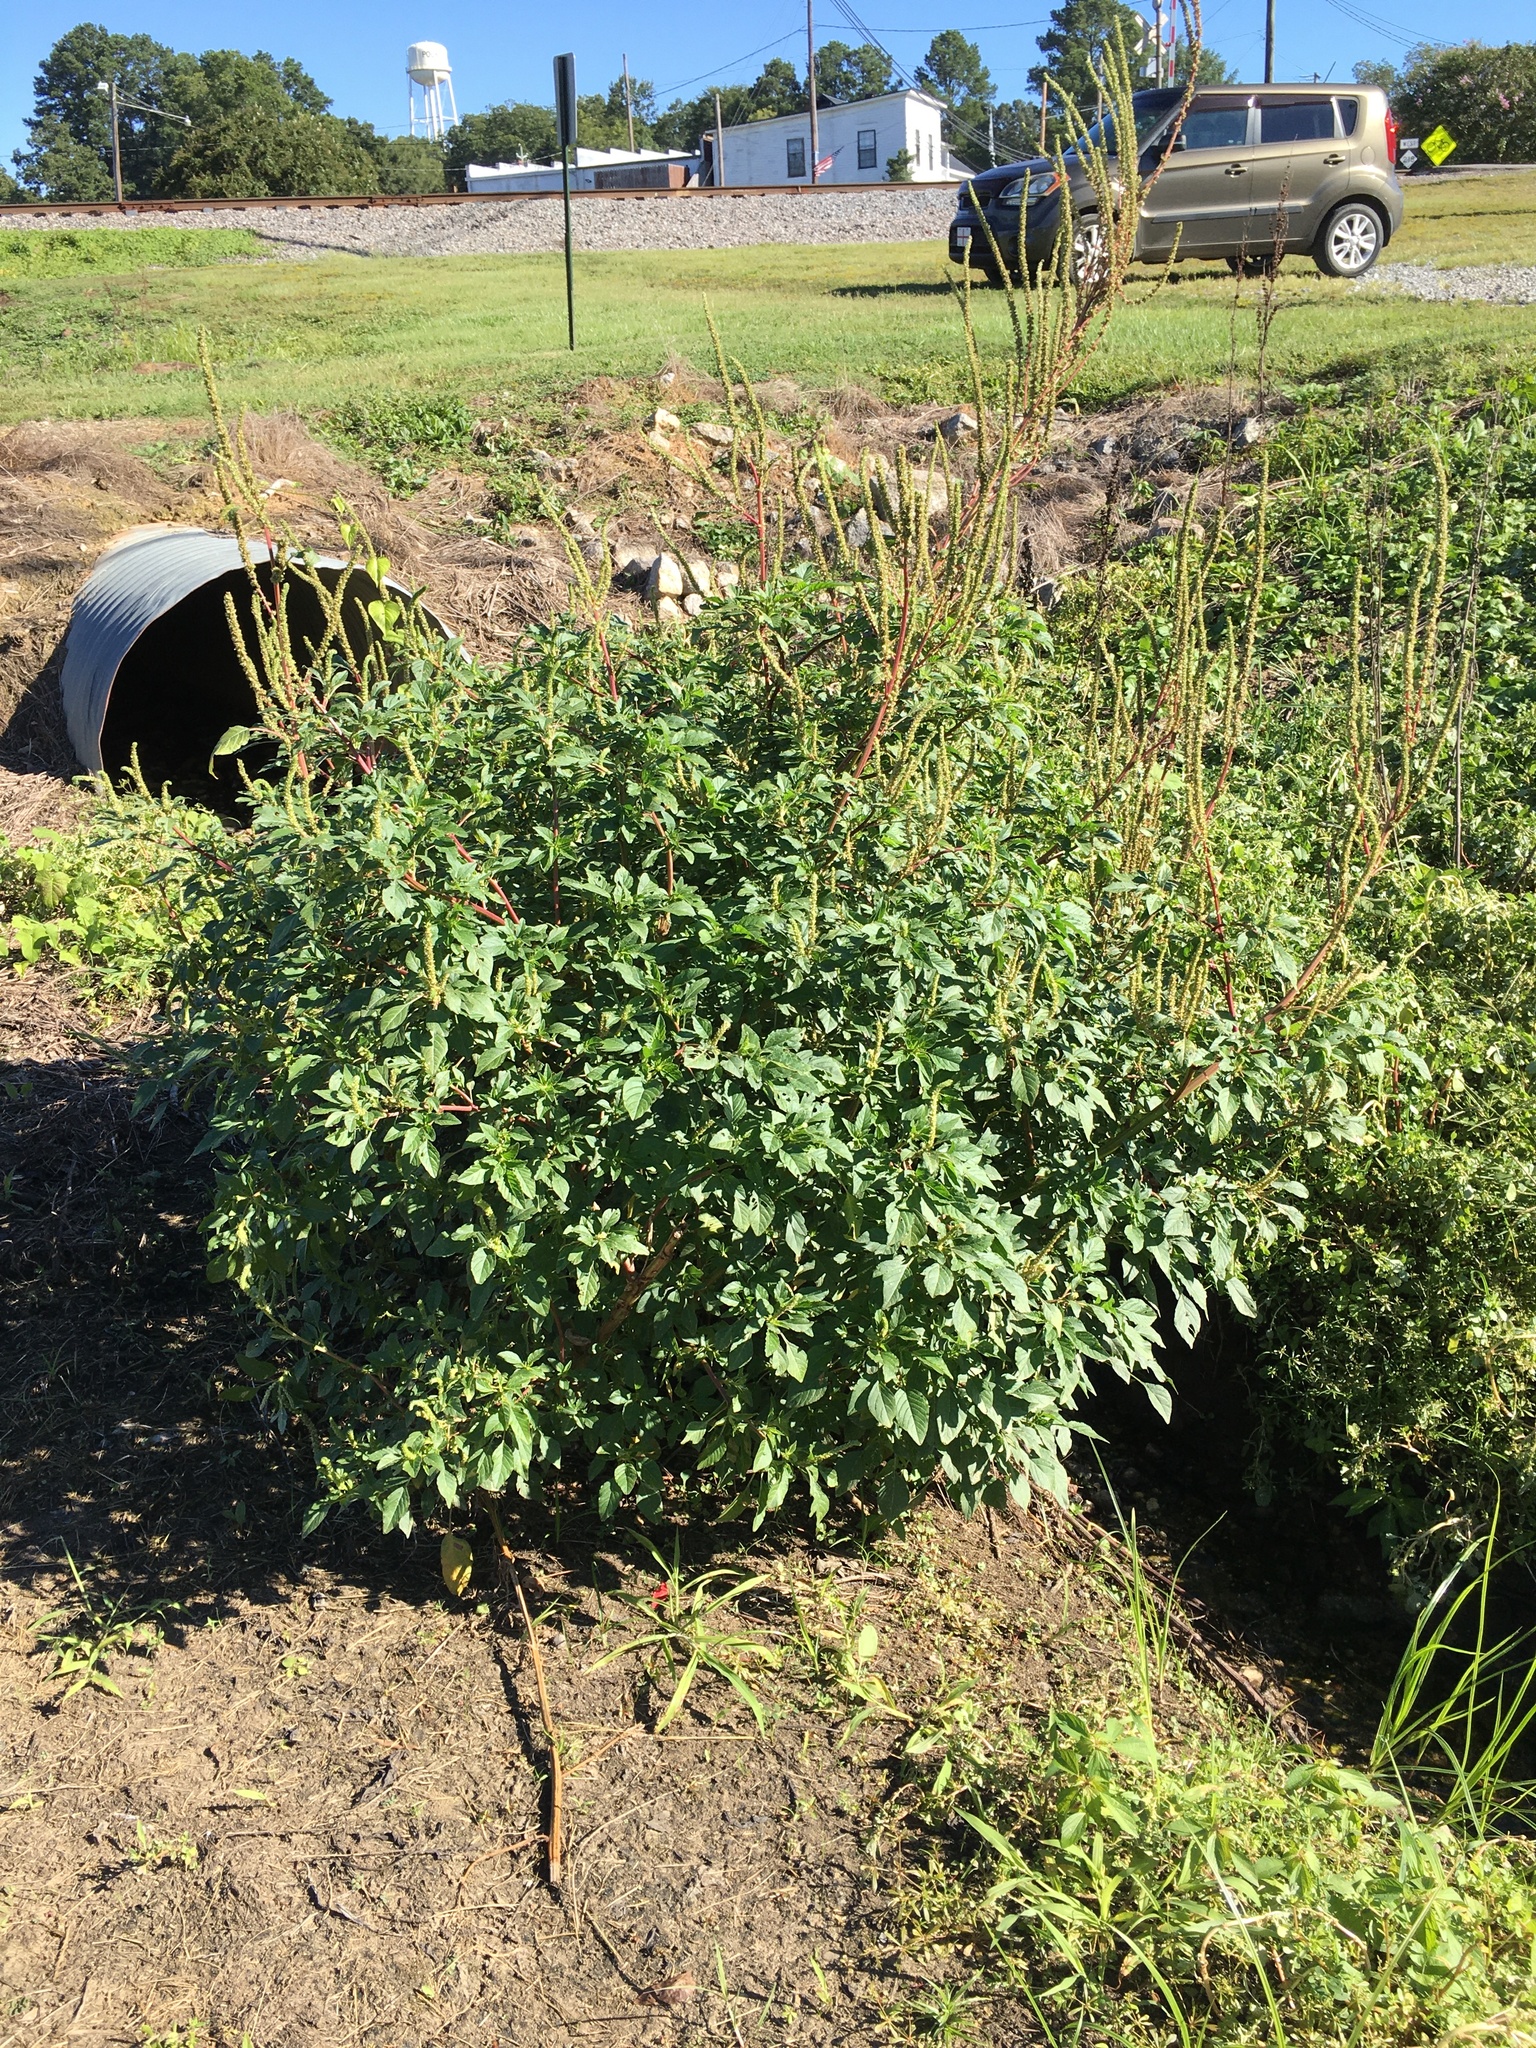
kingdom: Plantae
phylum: Tracheophyta
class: Magnoliopsida
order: Caryophyllales
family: Amaranthaceae
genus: Amaranthus
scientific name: Amaranthus hybridus
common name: Green amaranth
